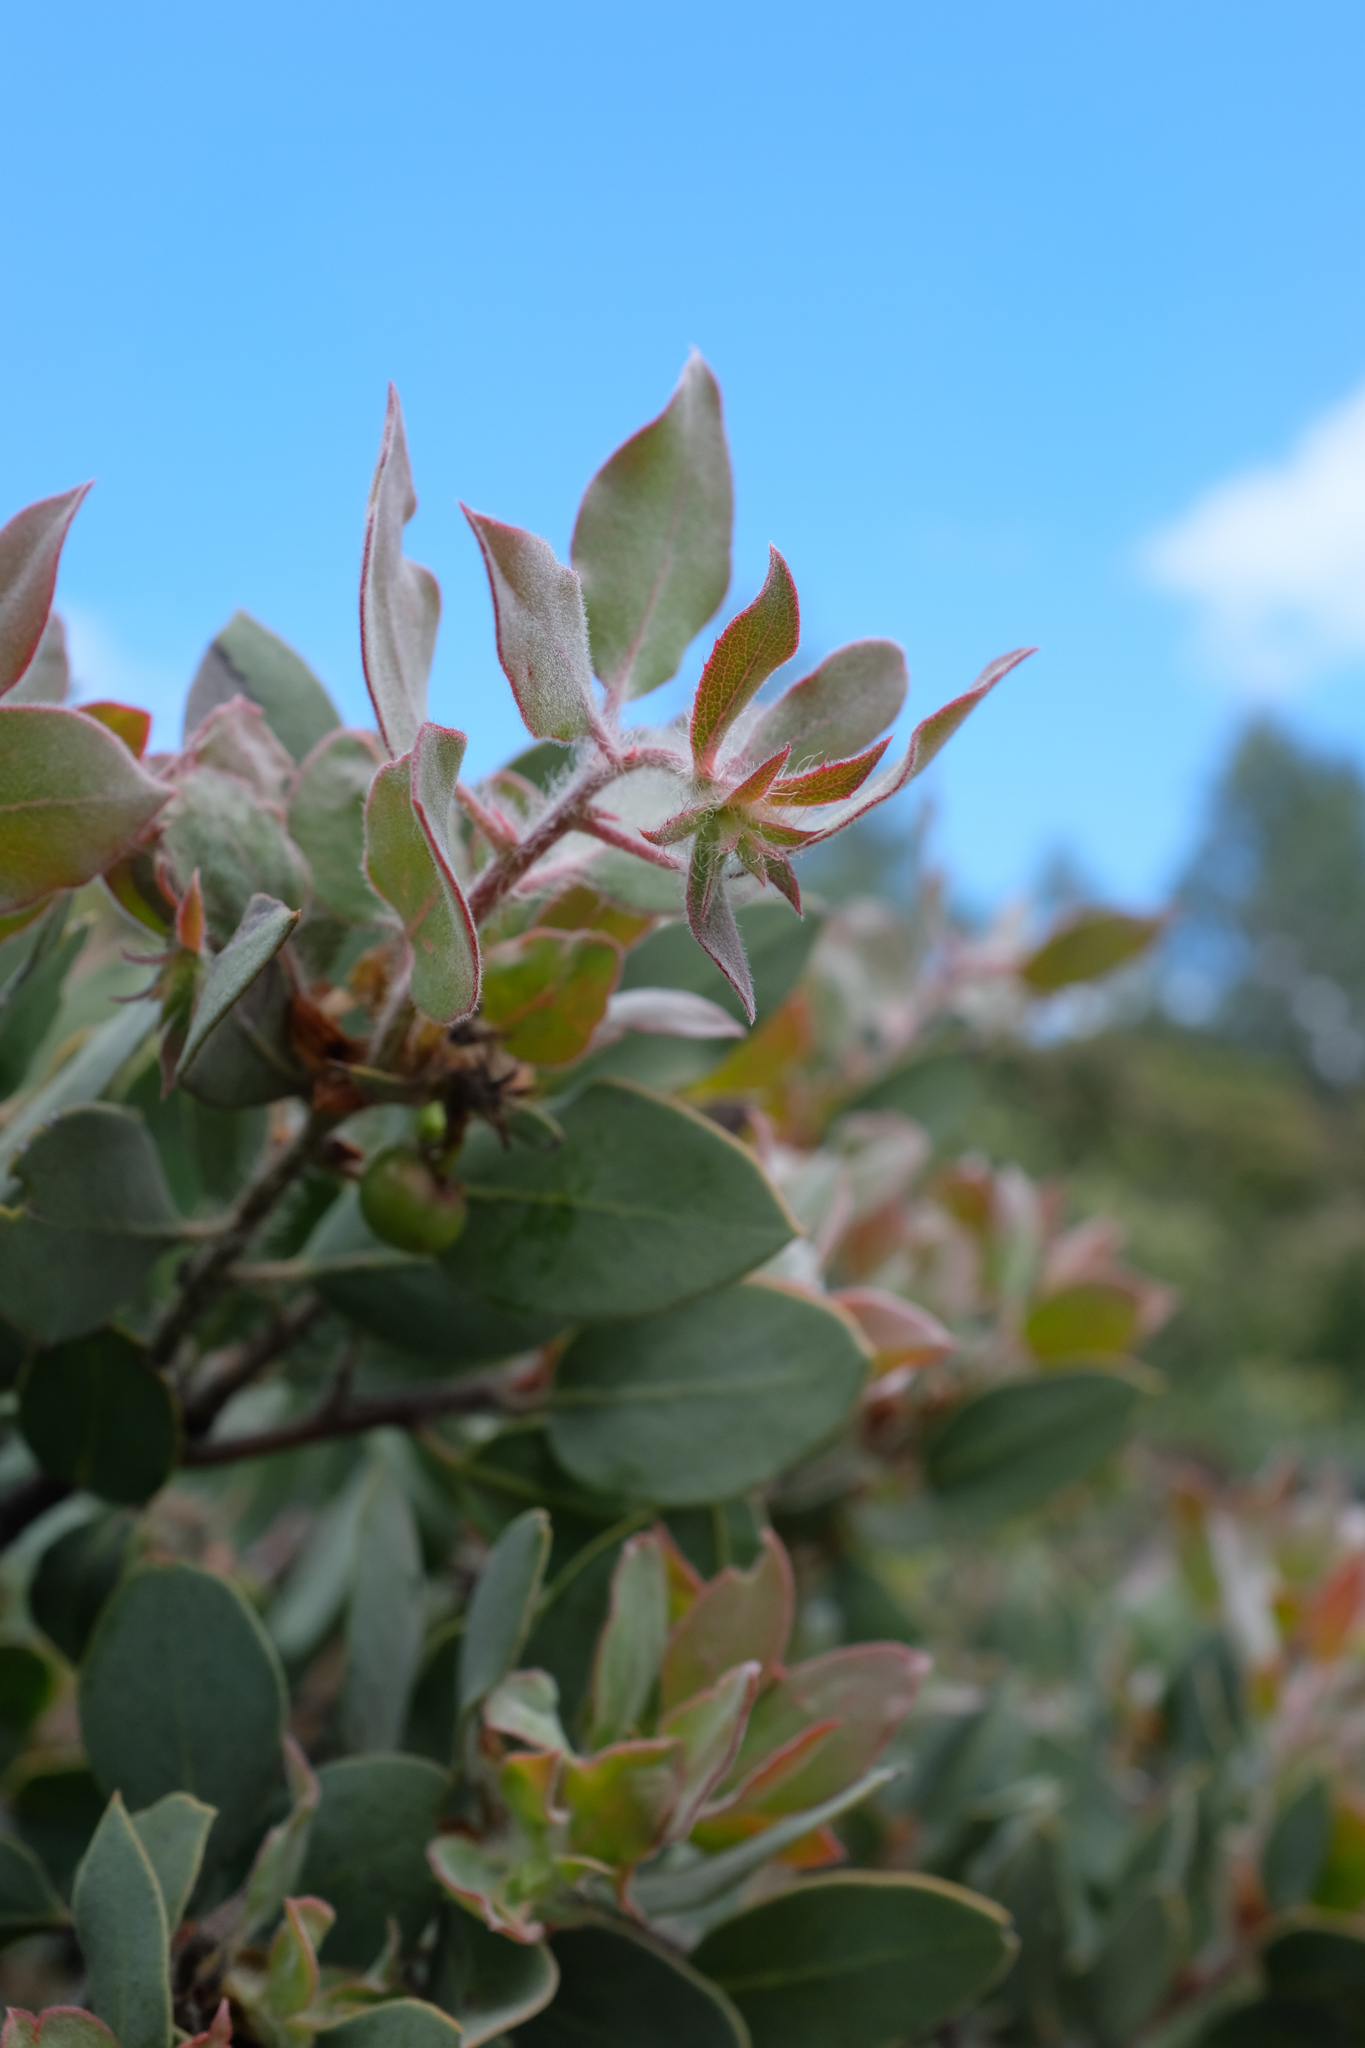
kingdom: Plantae
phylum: Tracheophyta
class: Magnoliopsida
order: Ericales
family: Ericaceae
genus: Arctostaphylos
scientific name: Arctostaphylos pilosula
